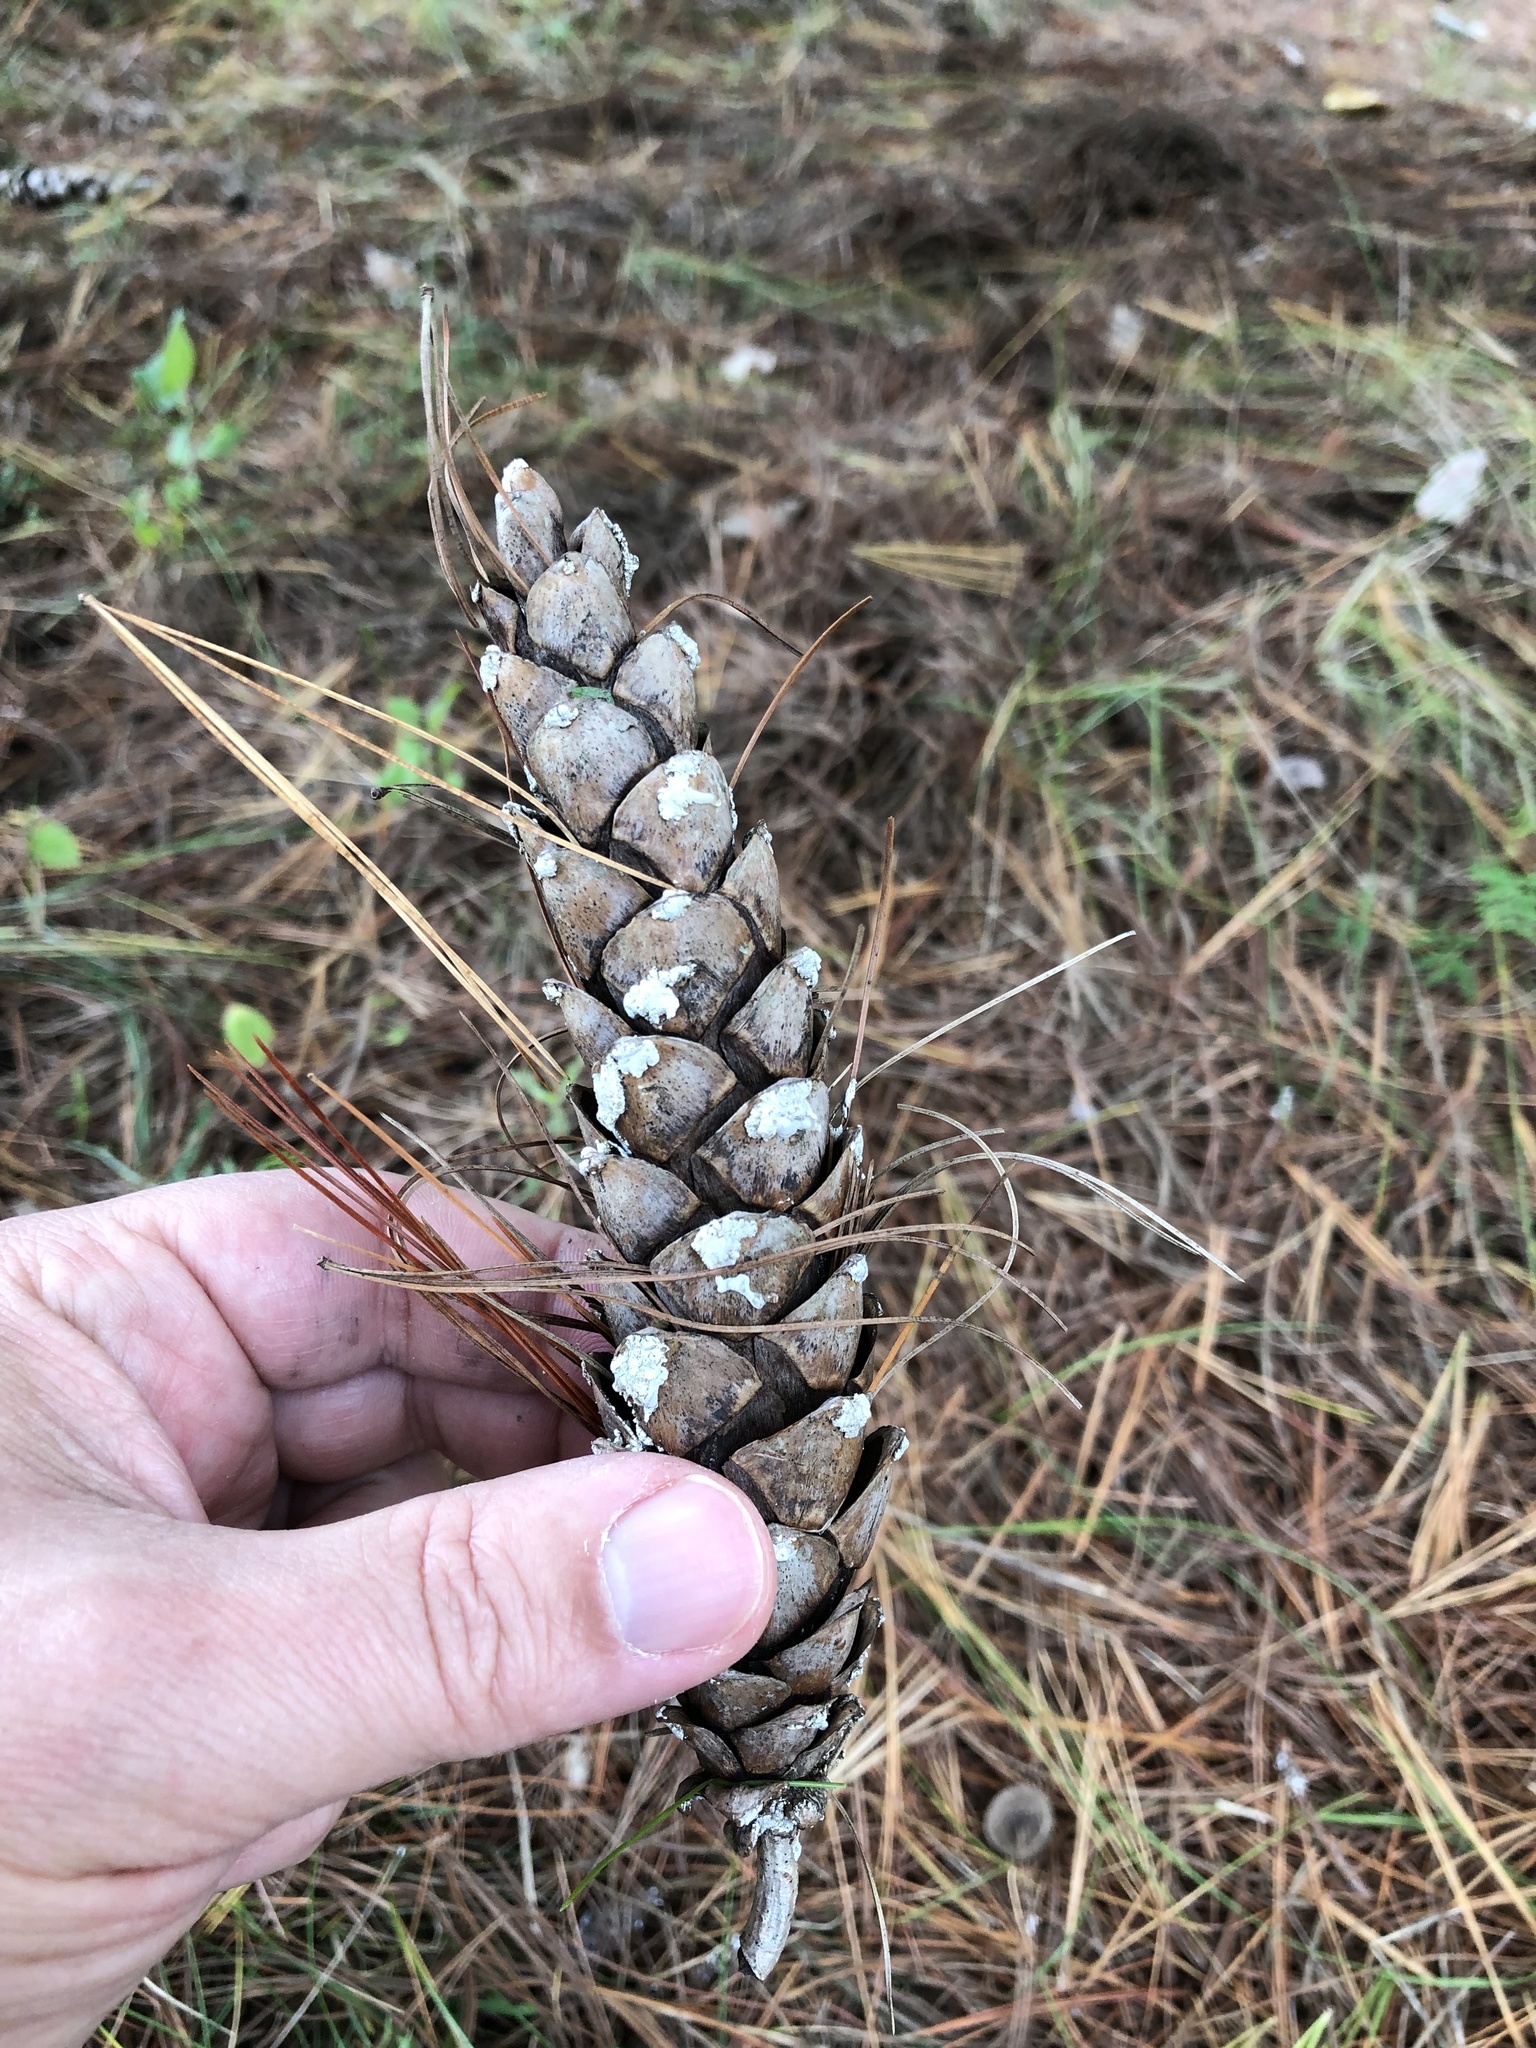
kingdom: Plantae
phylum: Tracheophyta
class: Pinopsida
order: Pinales
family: Pinaceae
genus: Pinus
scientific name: Pinus strobus
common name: Weymouth pine
